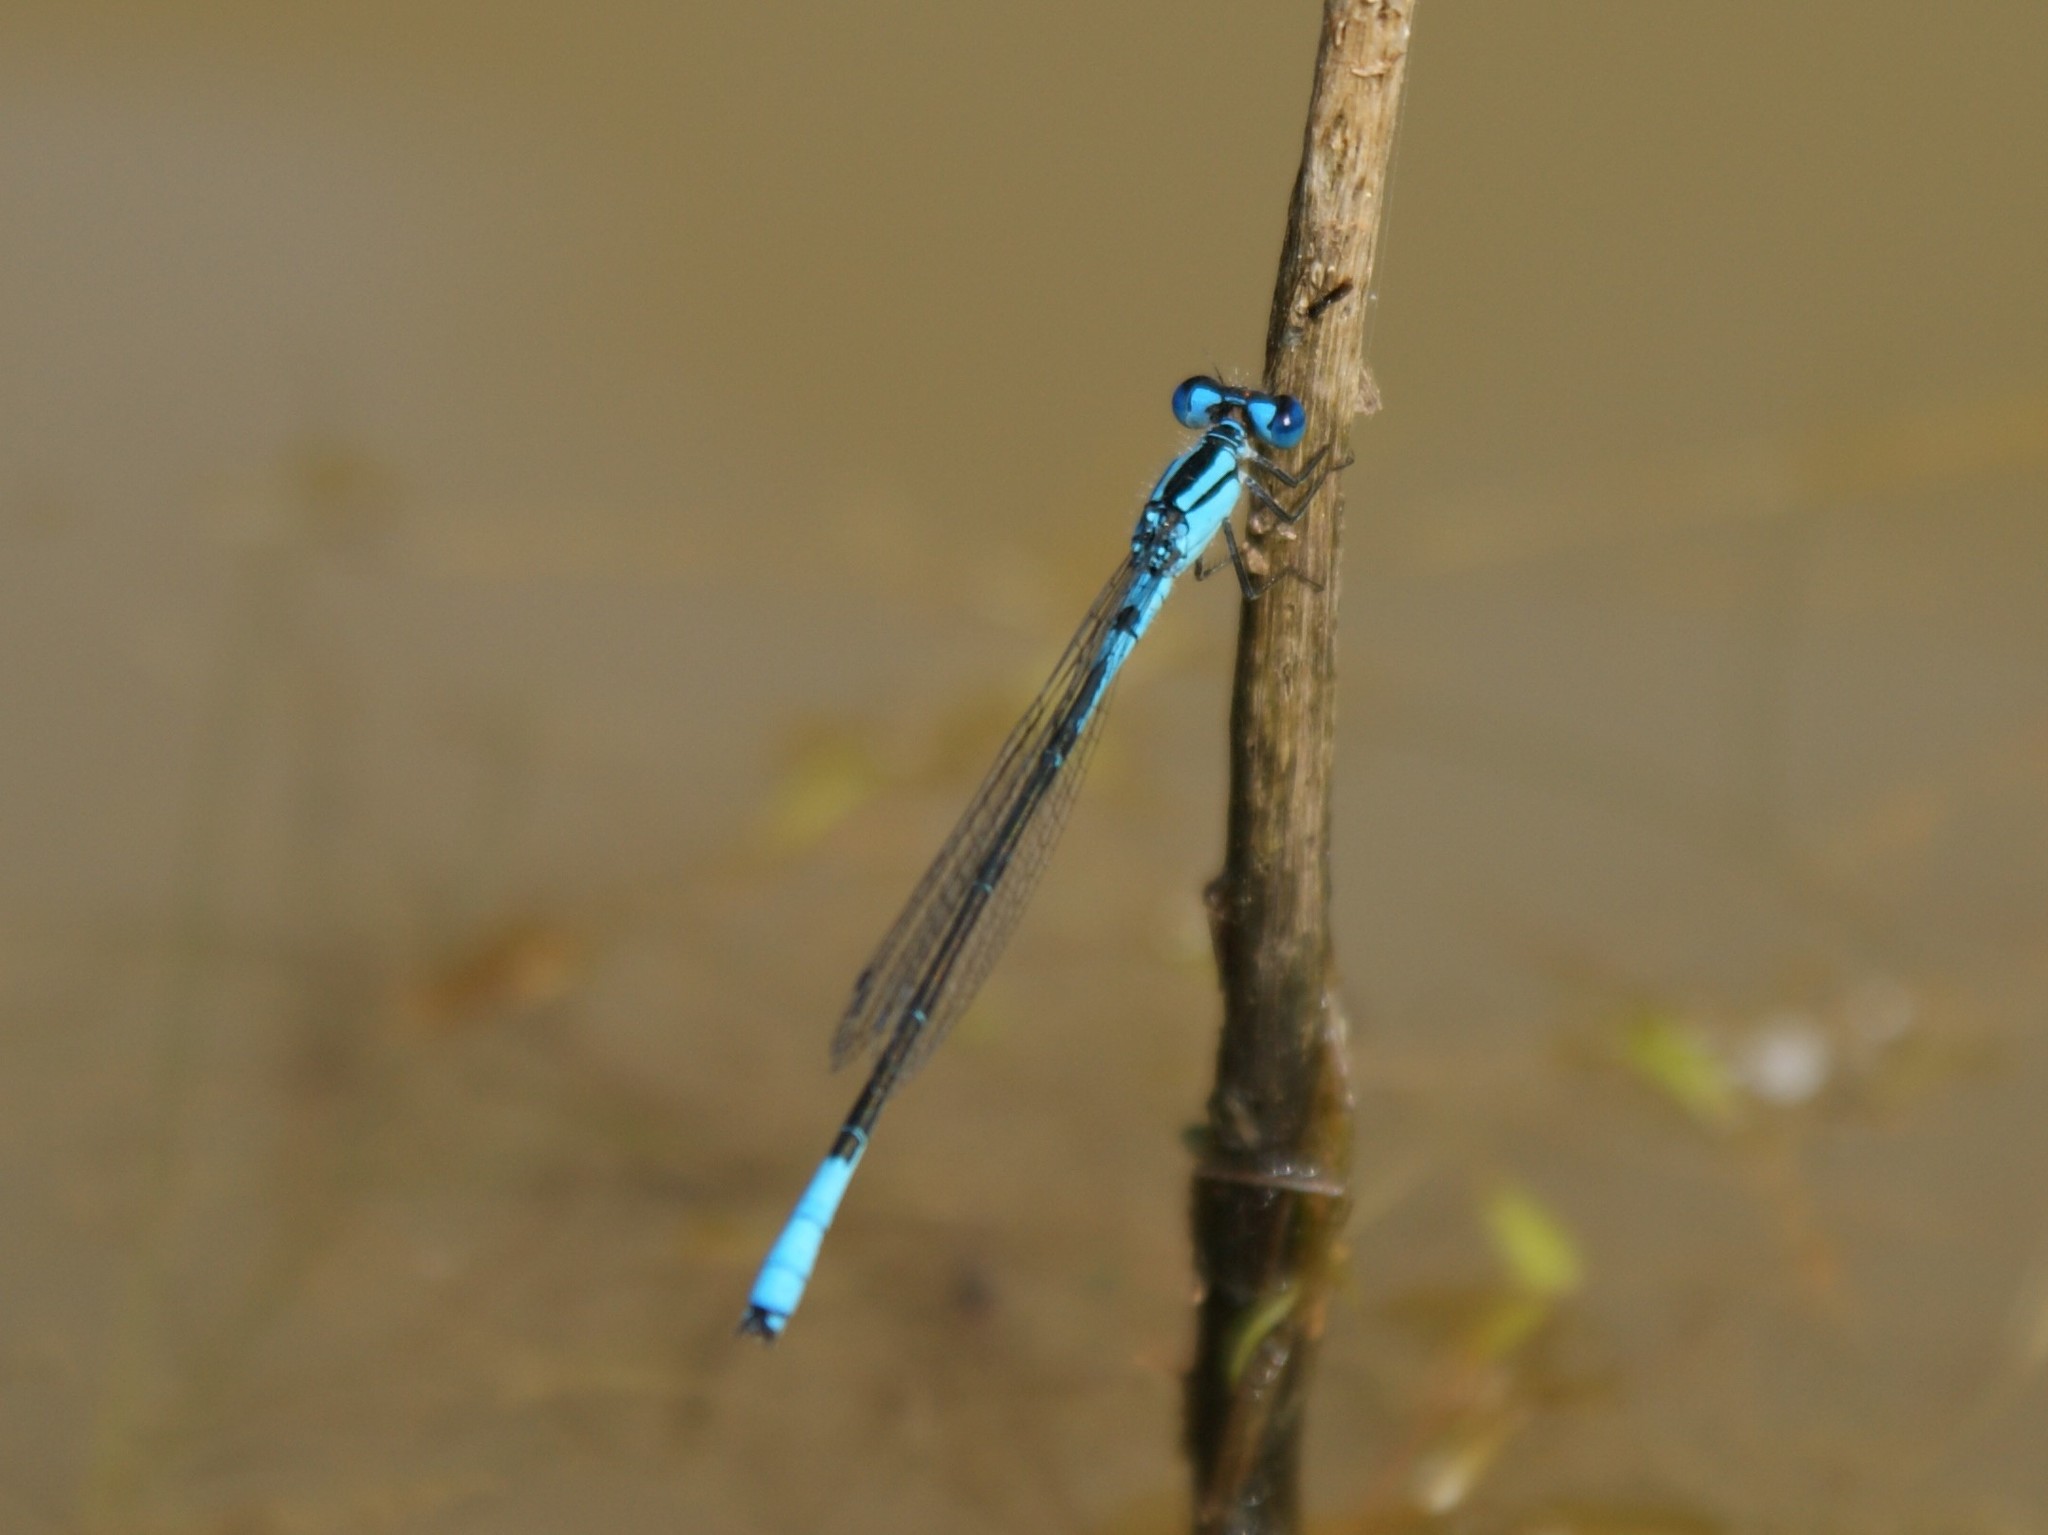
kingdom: Animalia
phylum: Arthropoda
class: Insecta
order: Odonata
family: Coenagrionidae
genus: Enallagma
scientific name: Enallagma aspersum
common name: Azure bluet
